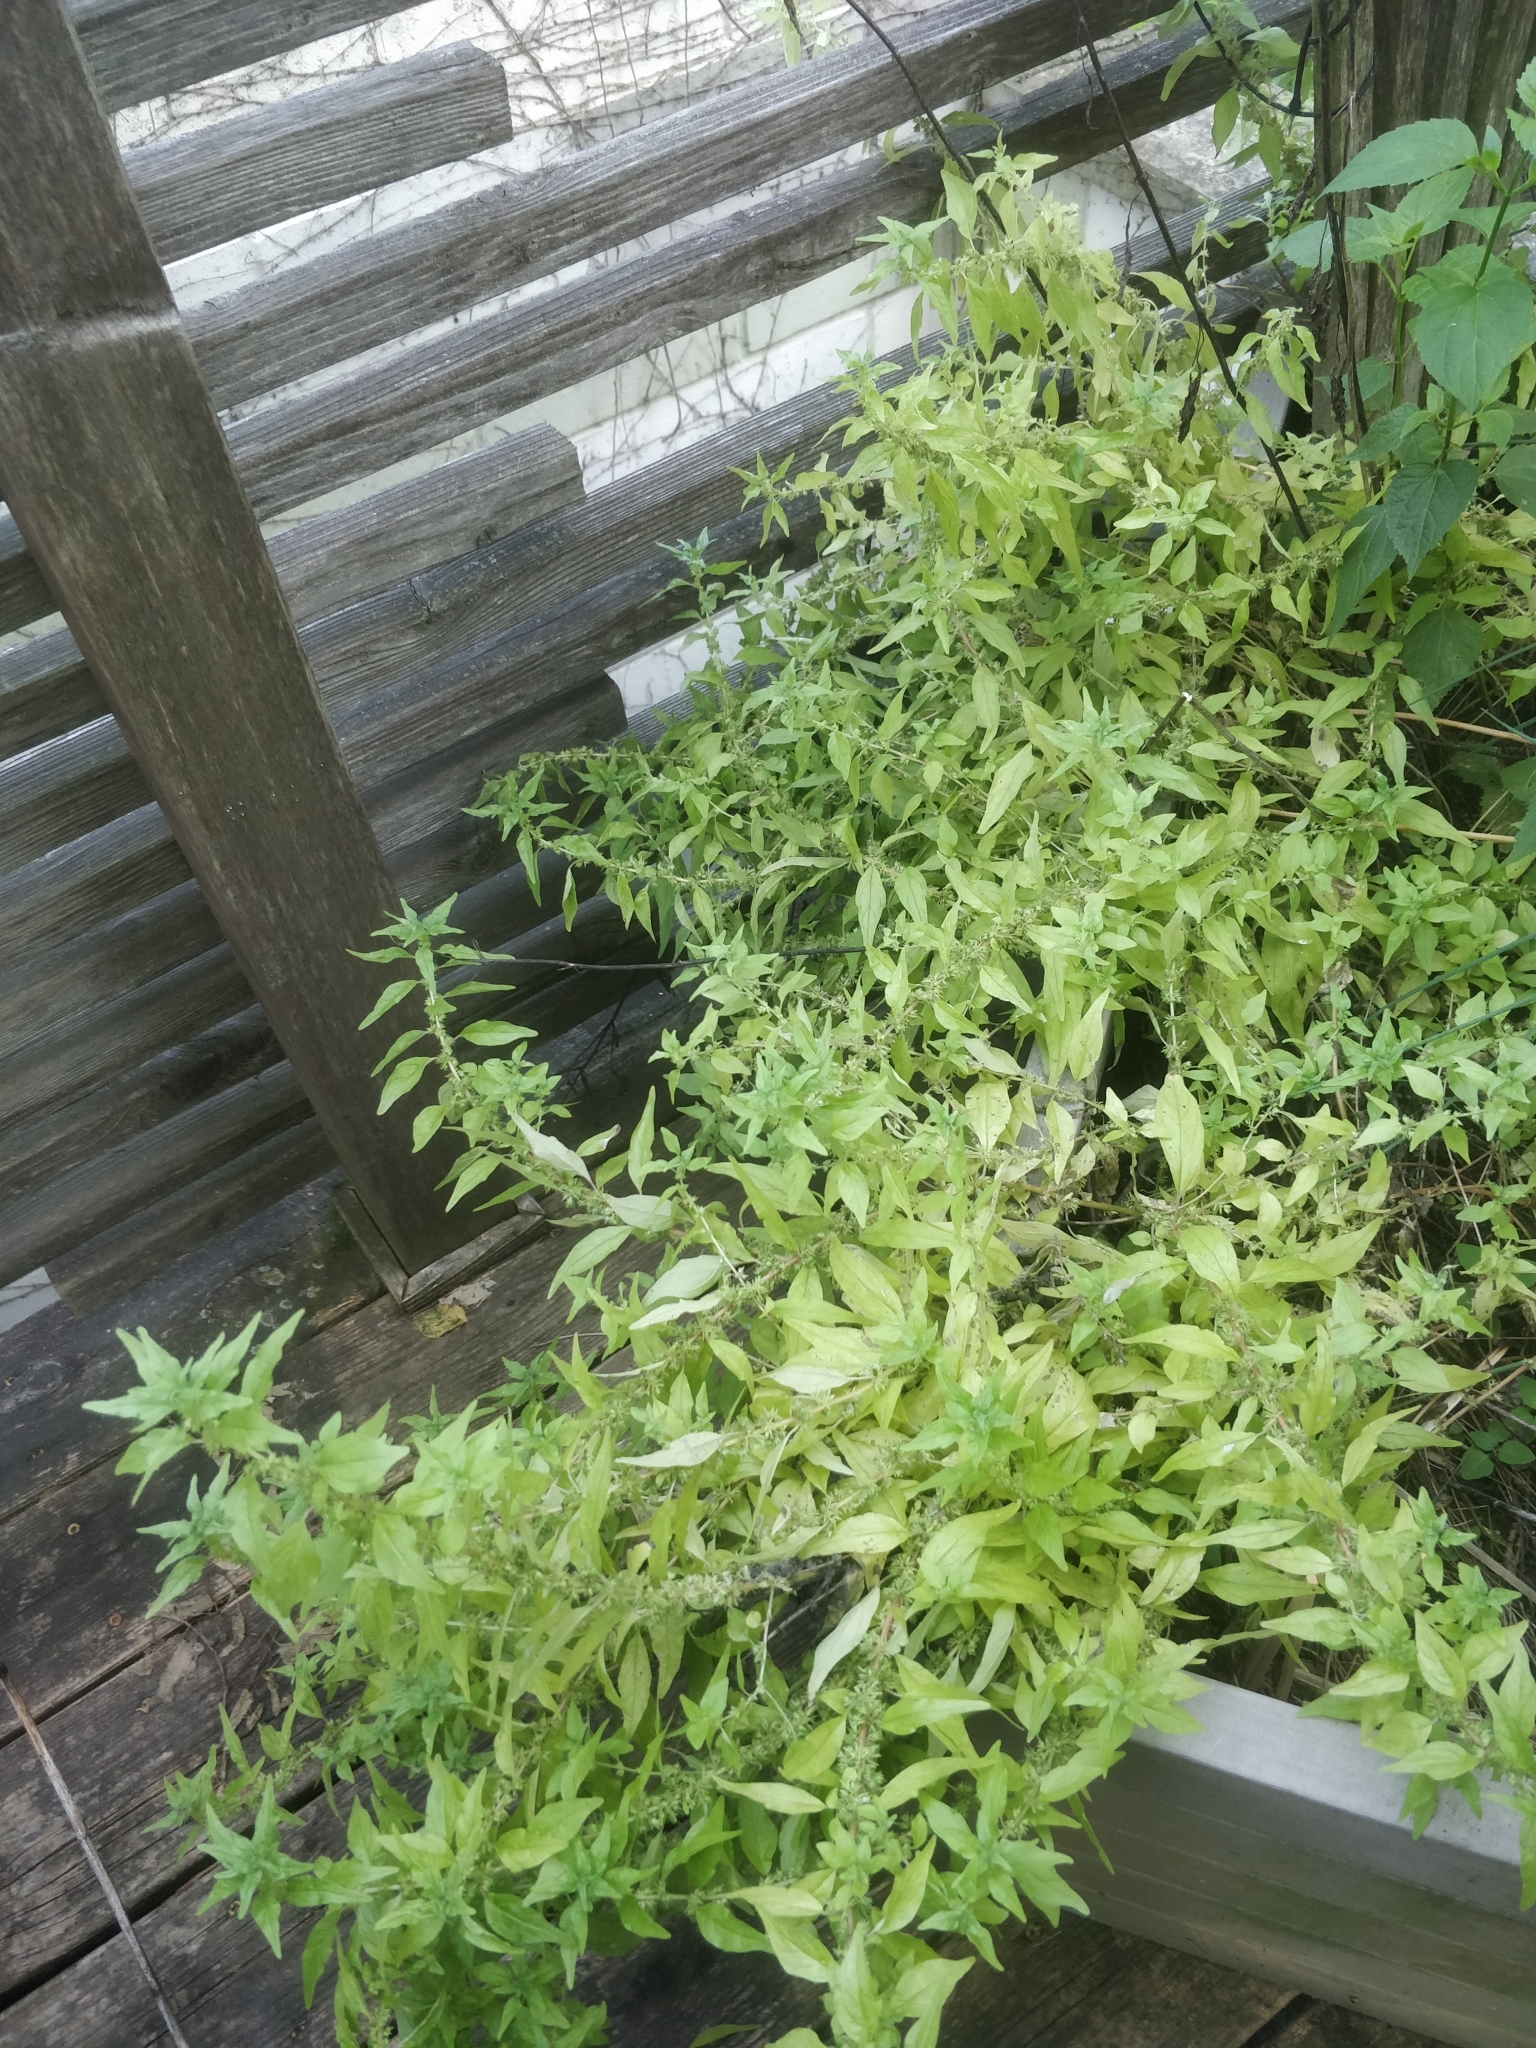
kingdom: Plantae
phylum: Tracheophyta
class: Magnoliopsida
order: Rosales
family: Urticaceae
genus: Parietaria
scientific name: Parietaria pensylvanica
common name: Pennsylvania pellitory
